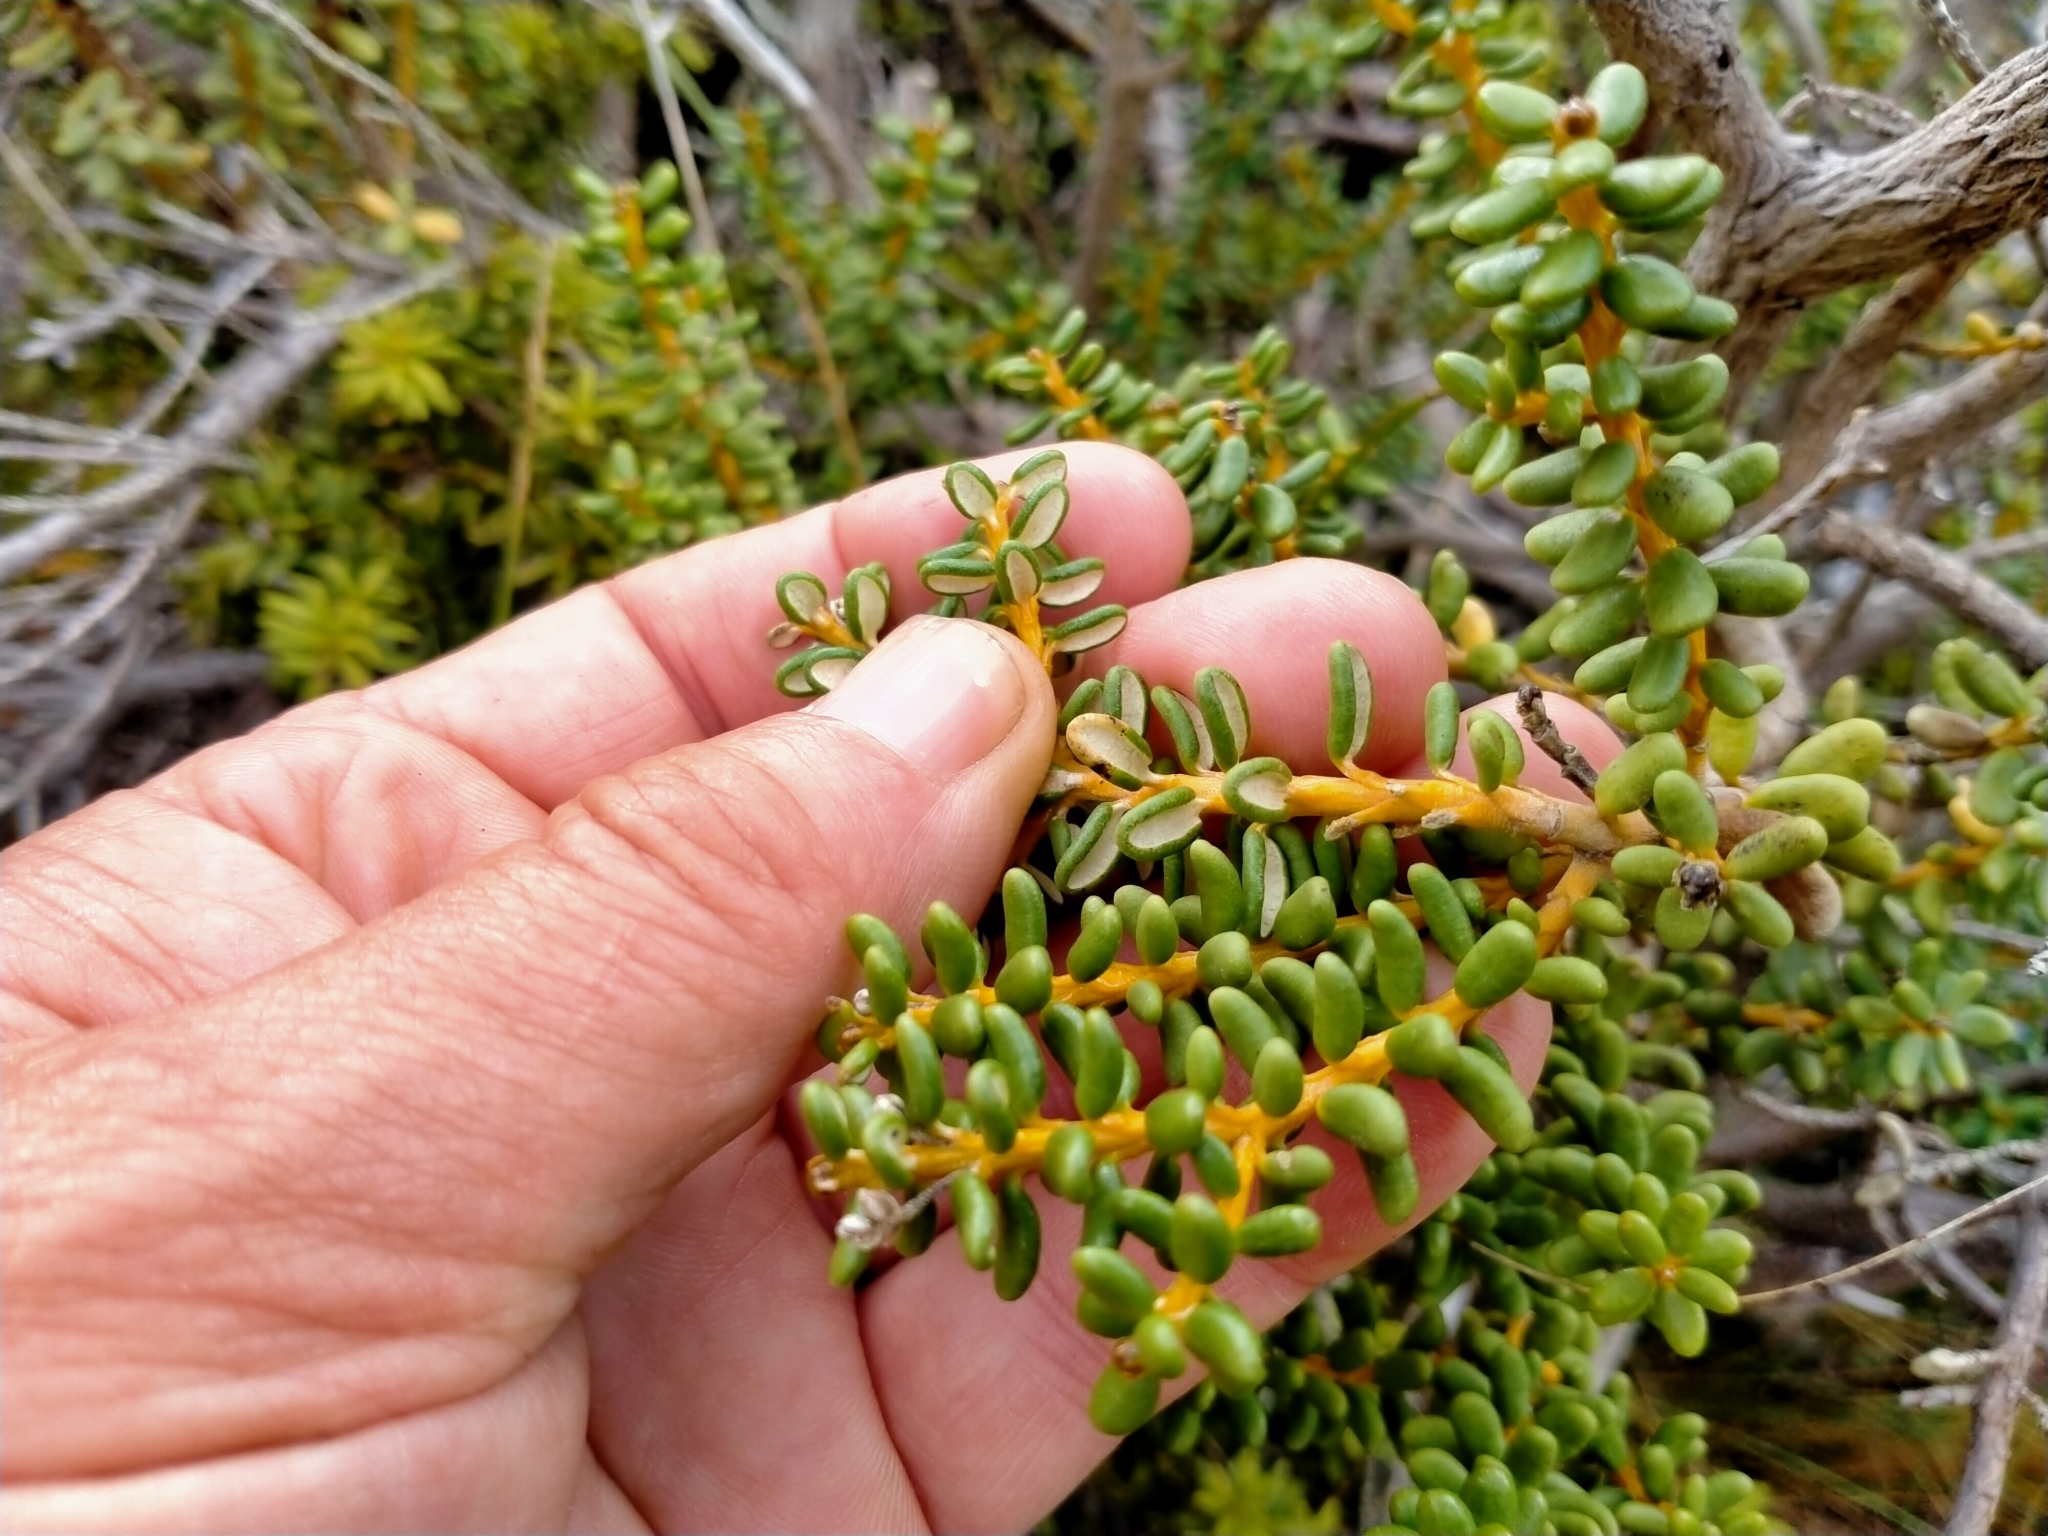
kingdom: Plantae
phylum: Tracheophyta
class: Magnoliopsida
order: Asterales
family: Asteraceae
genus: Olearia
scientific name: Olearia cymbifolia
